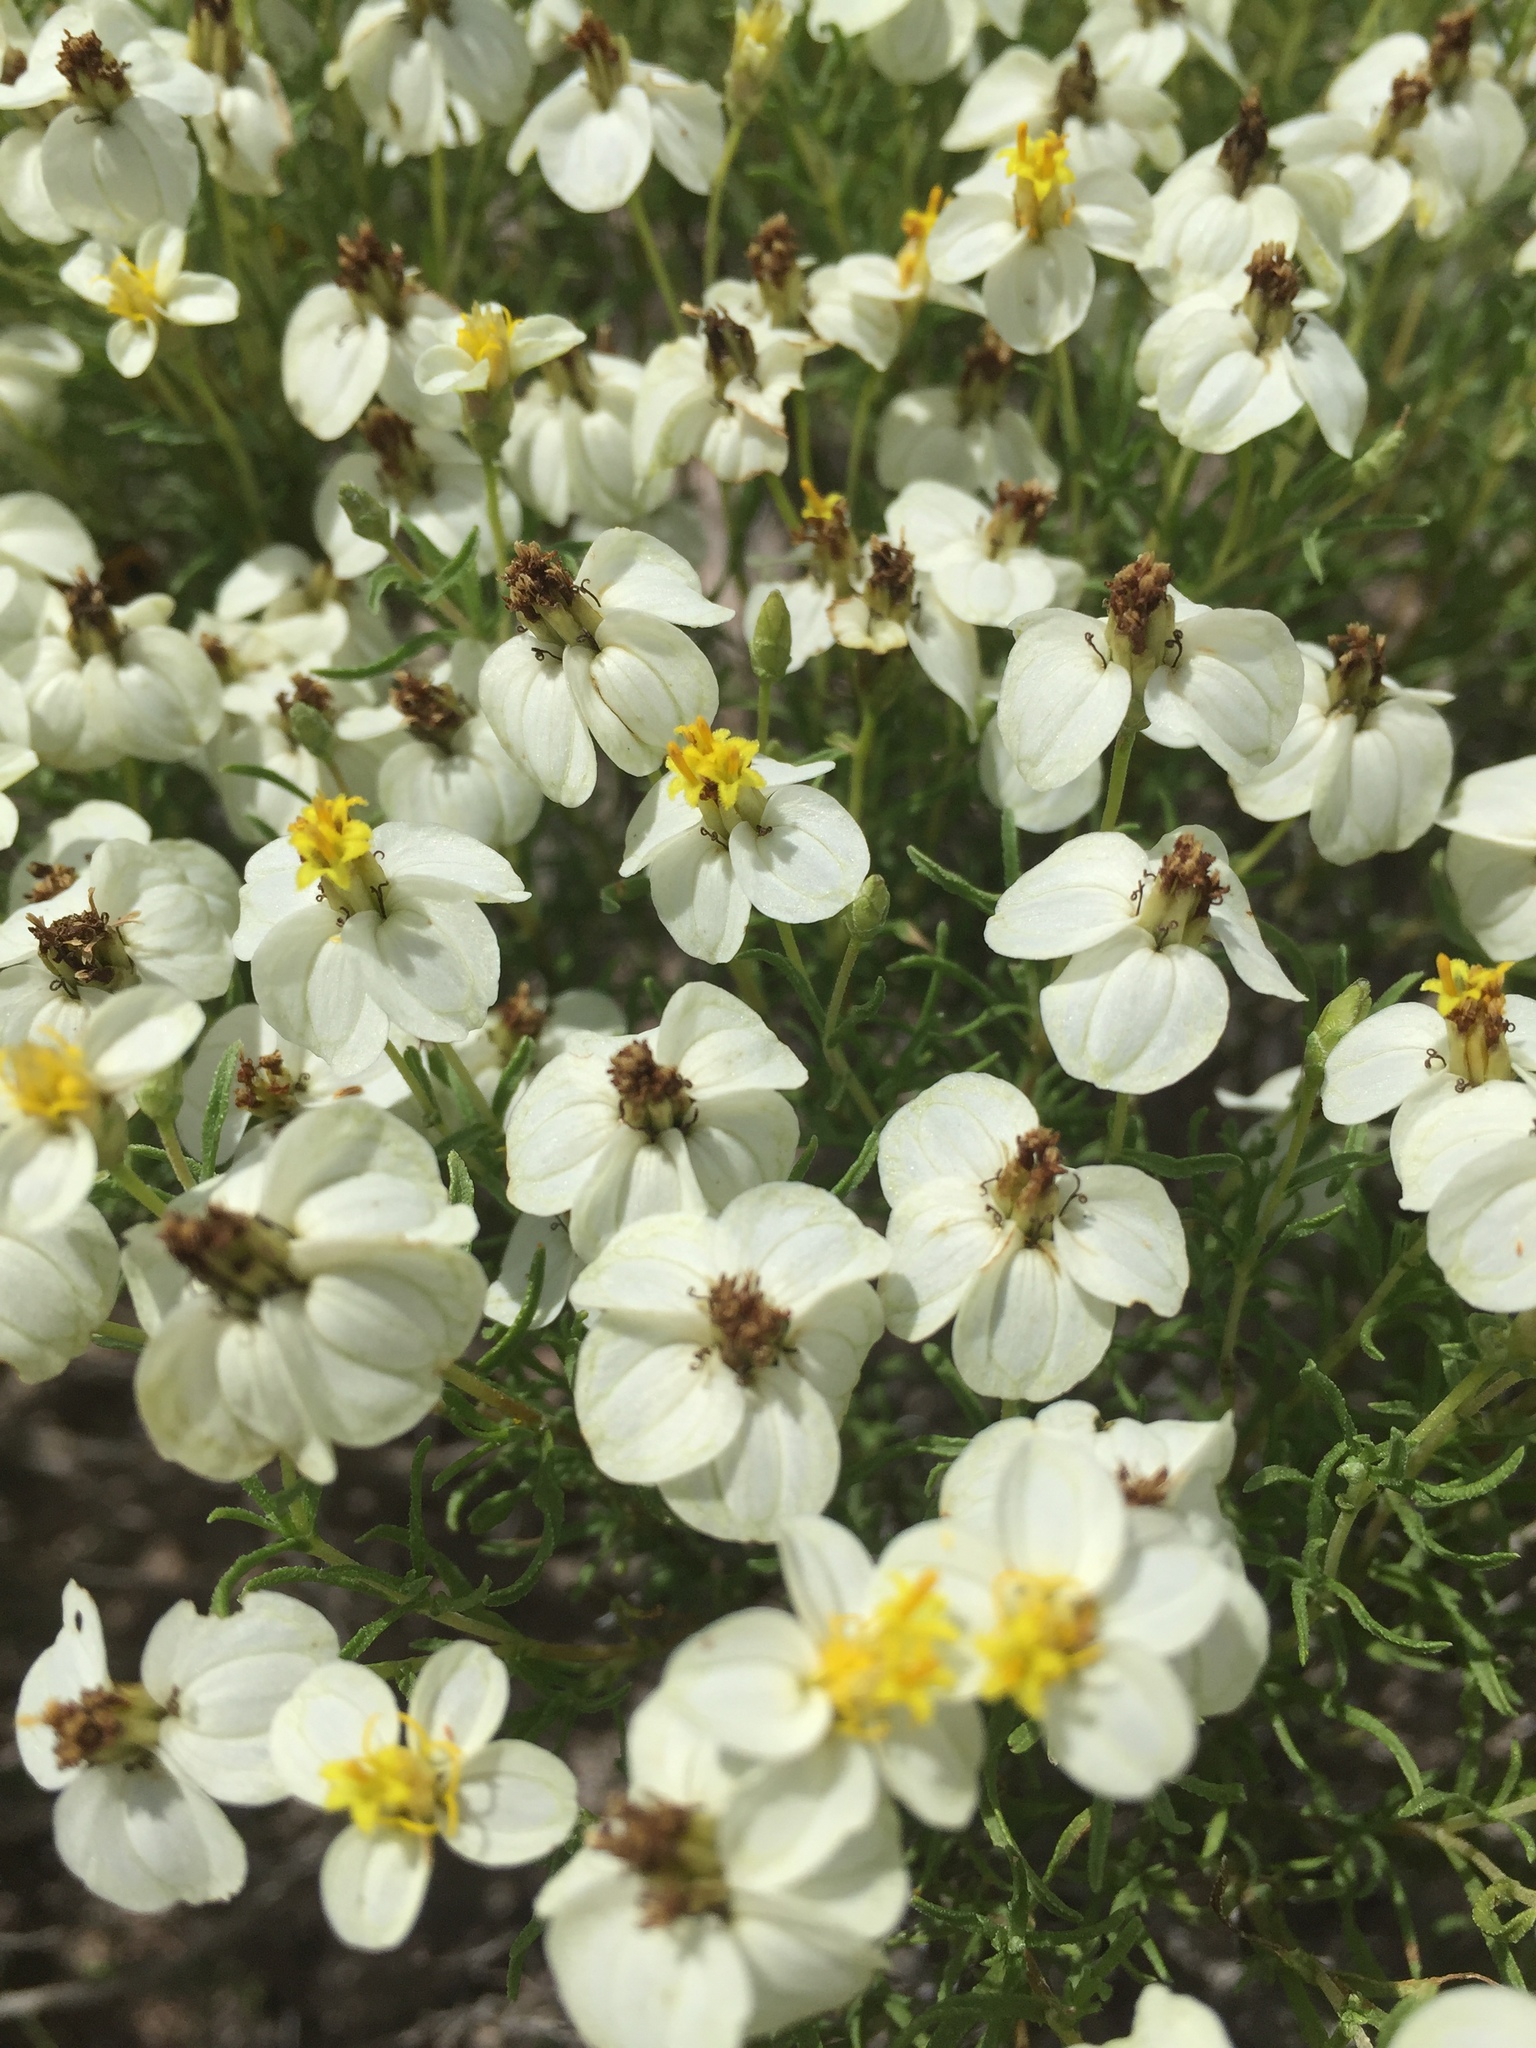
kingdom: Plantae
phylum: Tracheophyta
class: Magnoliopsida
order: Asterales
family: Asteraceae
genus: Zinnia
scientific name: Zinnia acerosa
